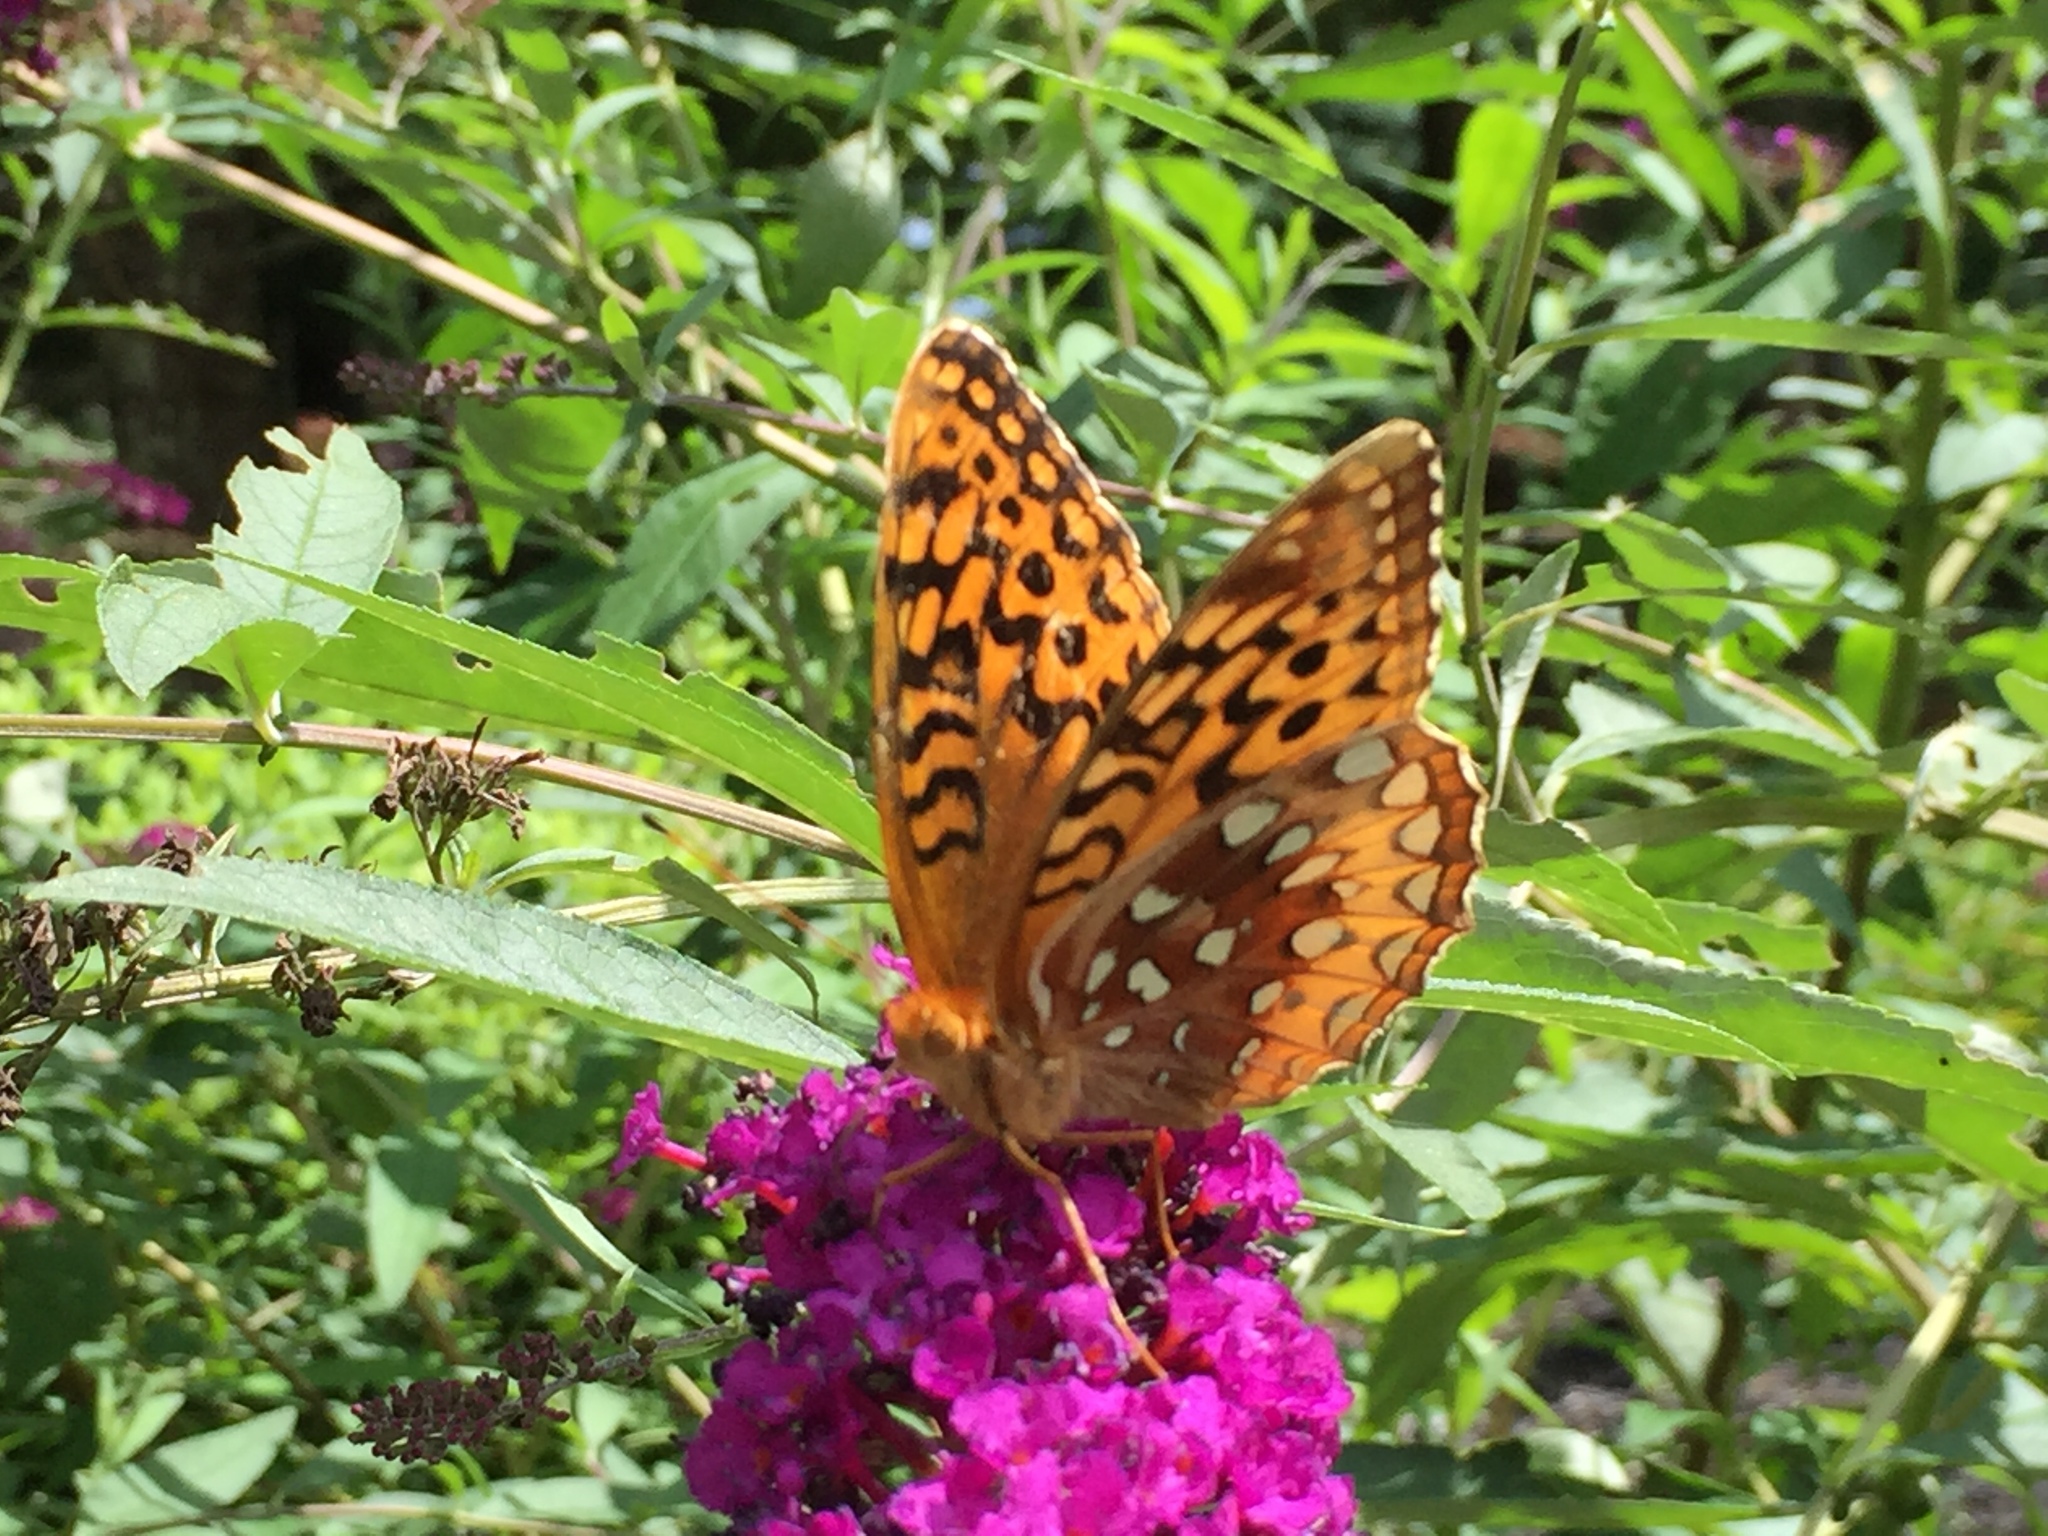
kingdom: Animalia
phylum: Arthropoda
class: Insecta
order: Lepidoptera
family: Nymphalidae
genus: Speyeria
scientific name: Speyeria cybele
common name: Great spangled fritillary
